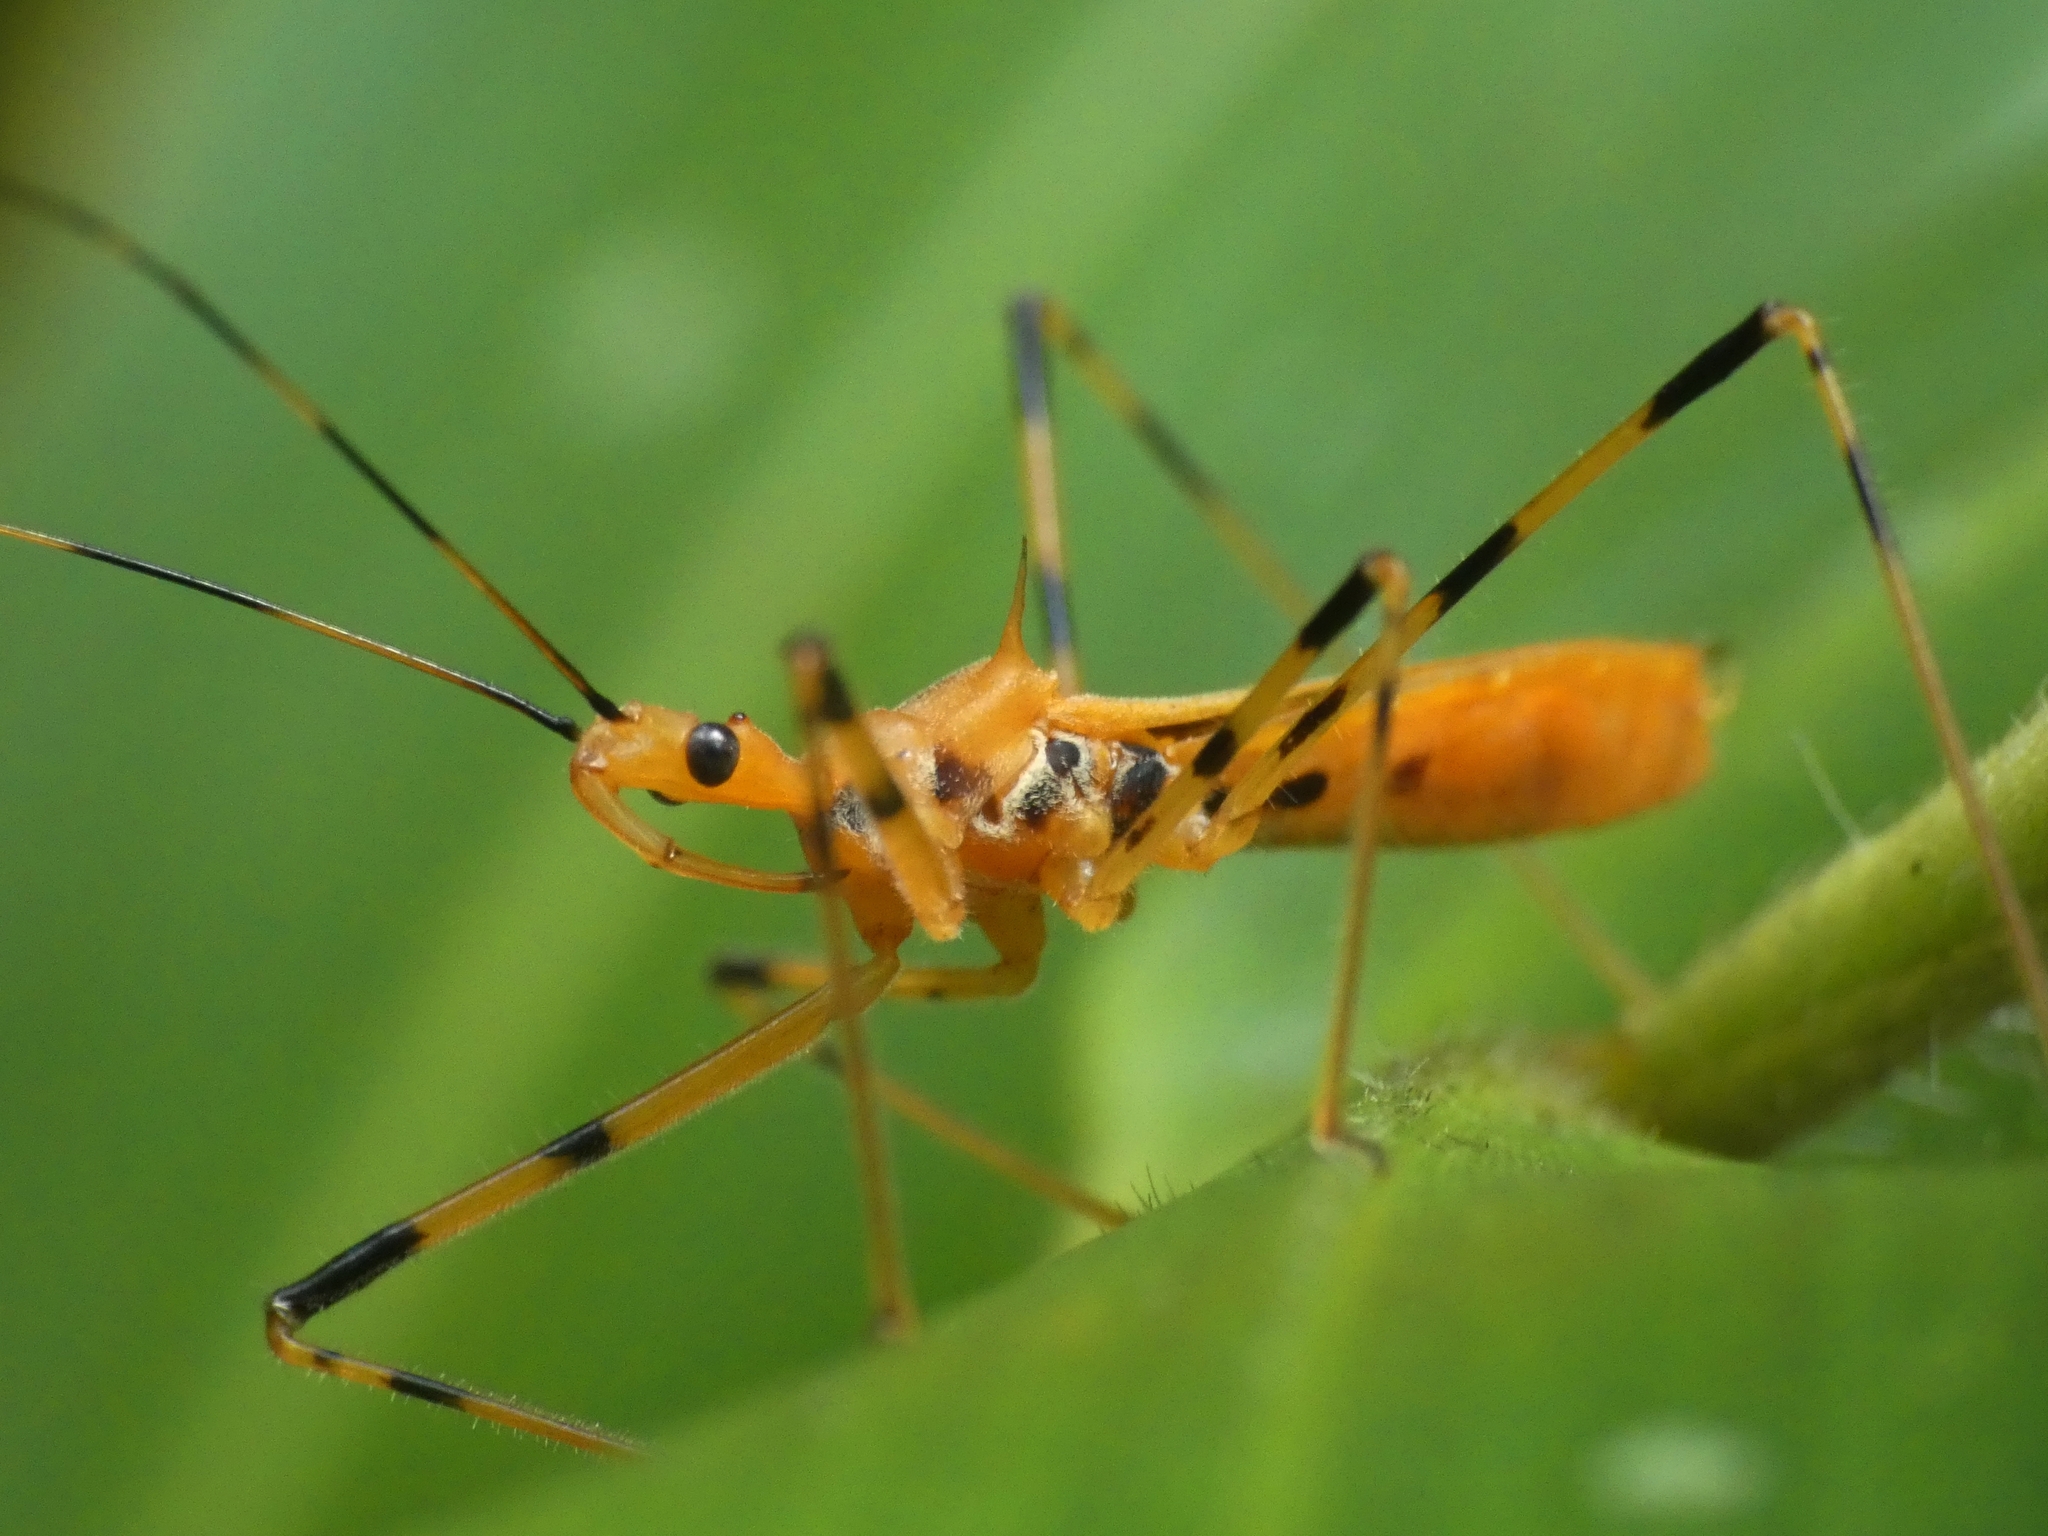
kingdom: Animalia
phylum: Arthropoda
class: Insecta
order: Hemiptera
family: Reduviidae
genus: Euagoras
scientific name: Euagoras dorycus
